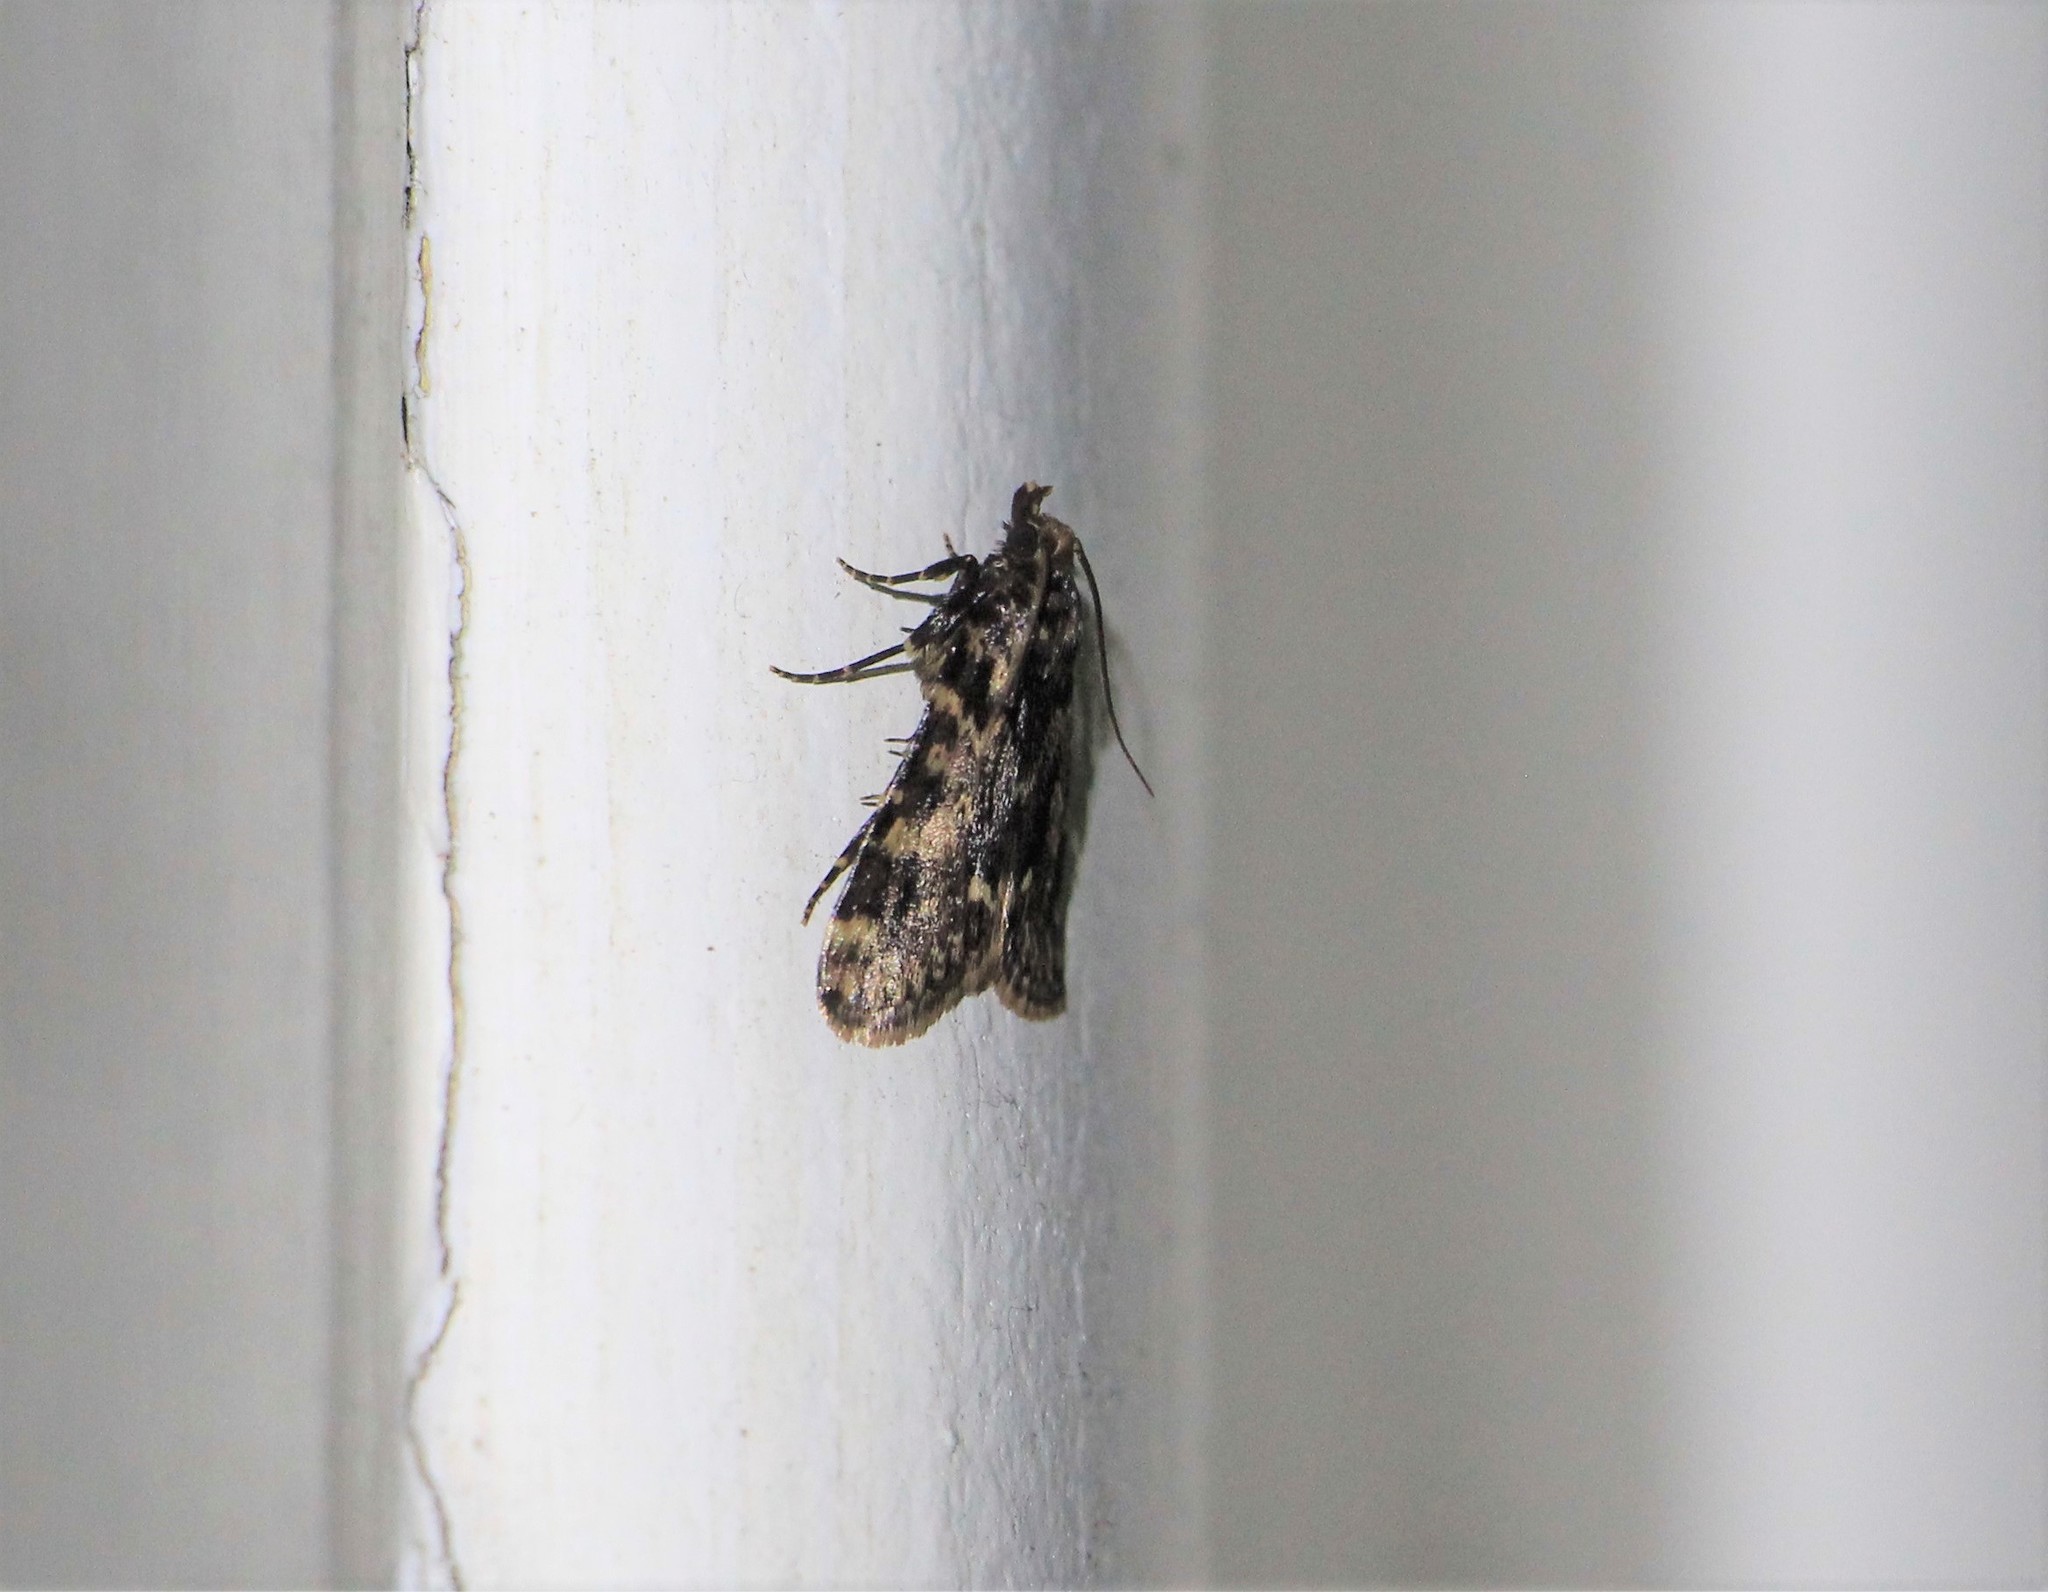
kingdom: Animalia
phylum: Arthropoda
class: Insecta
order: Lepidoptera
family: Pyralidae
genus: Aglossa
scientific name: Aglossa caprealis
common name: Small tabby
